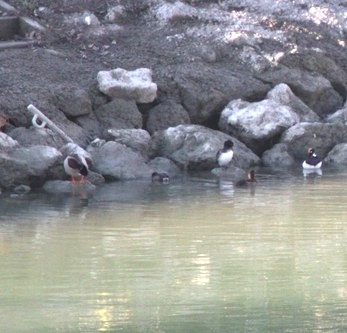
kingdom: Animalia
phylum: Chordata
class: Aves
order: Podicipediformes
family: Podicipedidae
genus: Tachybaptus
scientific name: Tachybaptus ruficollis
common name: Little grebe
